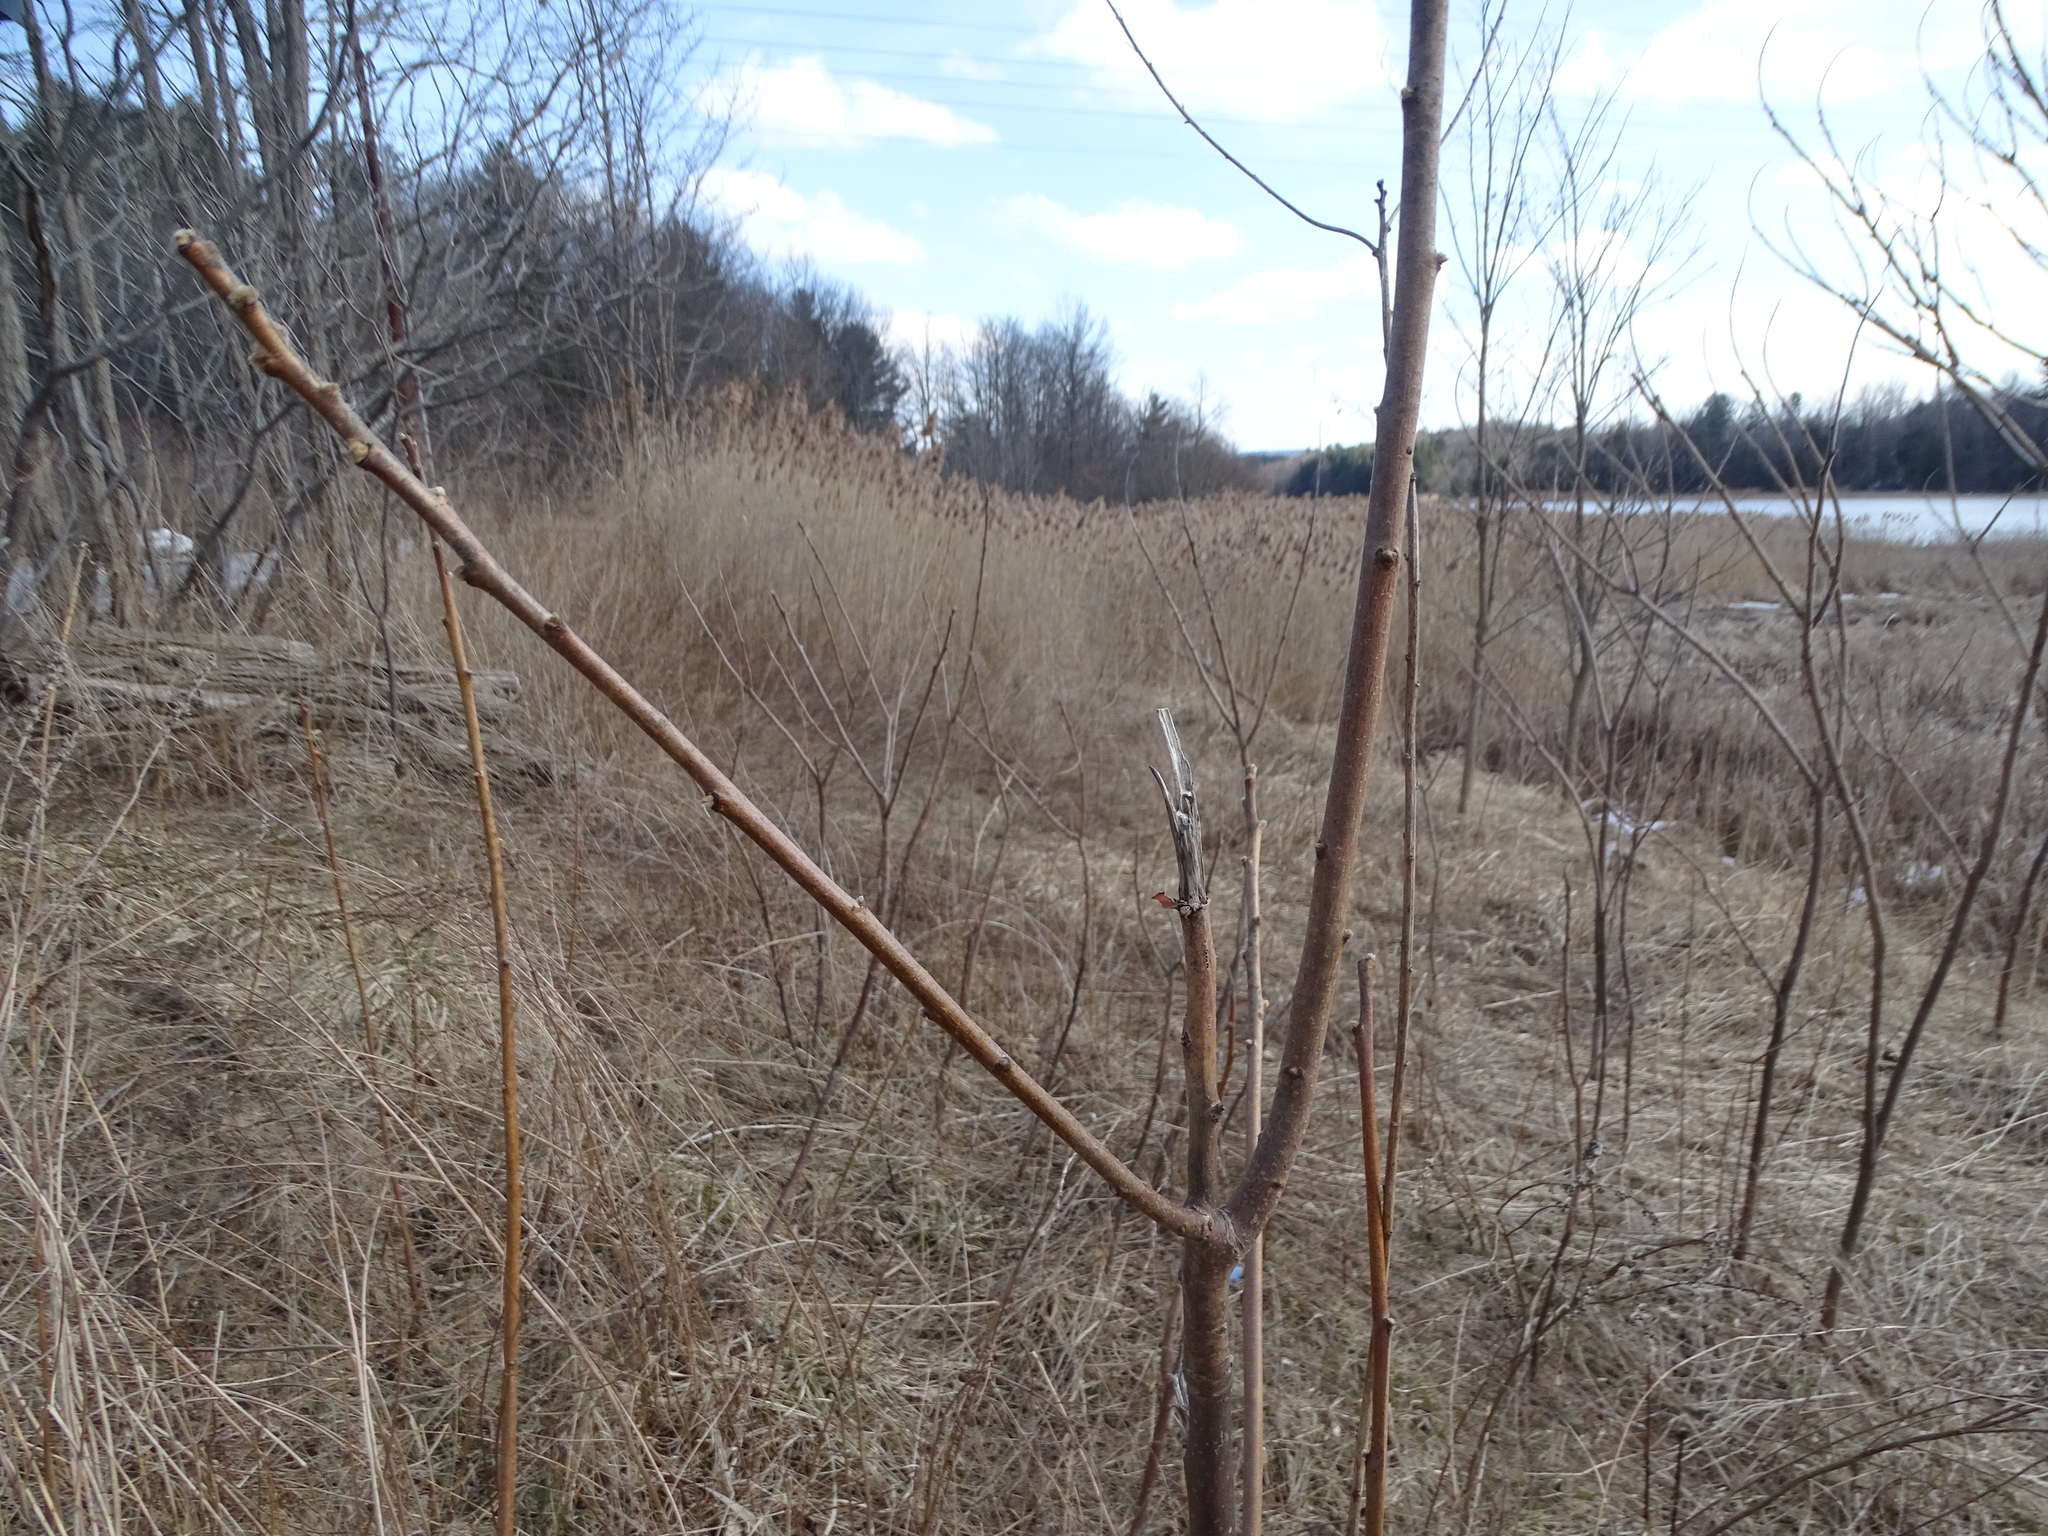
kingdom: Plantae
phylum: Tracheophyta
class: Magnoliopsida
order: Sapindales
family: Anacardiaceae
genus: Rhus
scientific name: Rhus typhina
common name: Staghorn sumac
